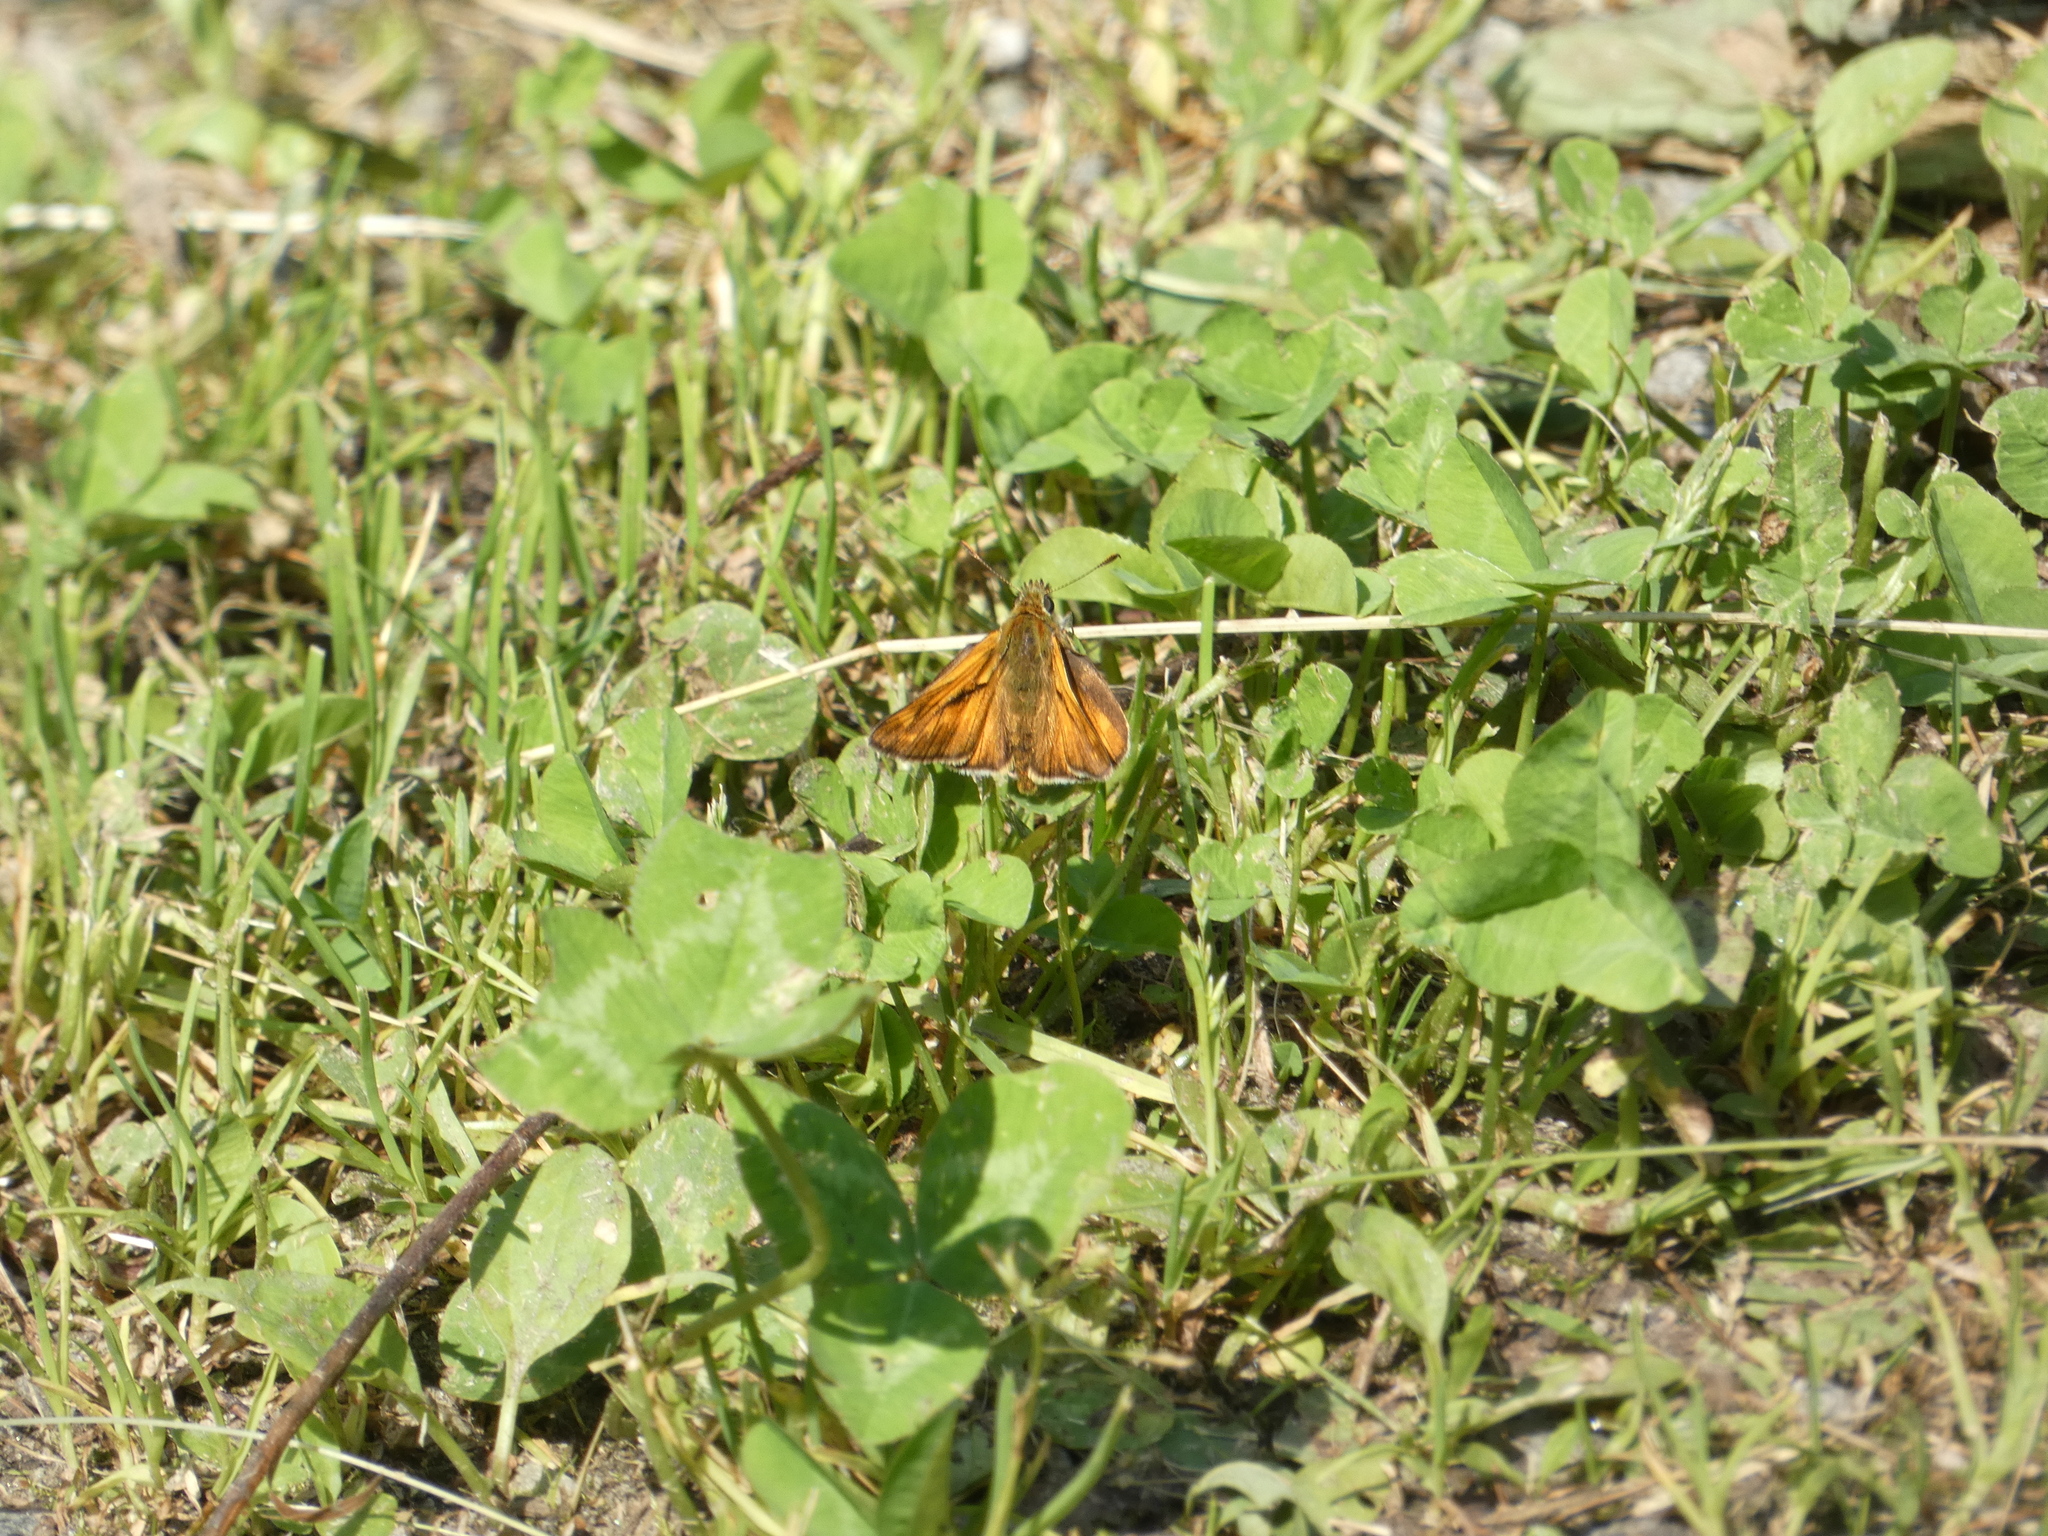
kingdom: Animalia
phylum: Arthropoda
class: Insecta
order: Lepidoptera
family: Hesperiidae
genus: Ochlodes
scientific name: Ochlodes venata
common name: Large skipper
